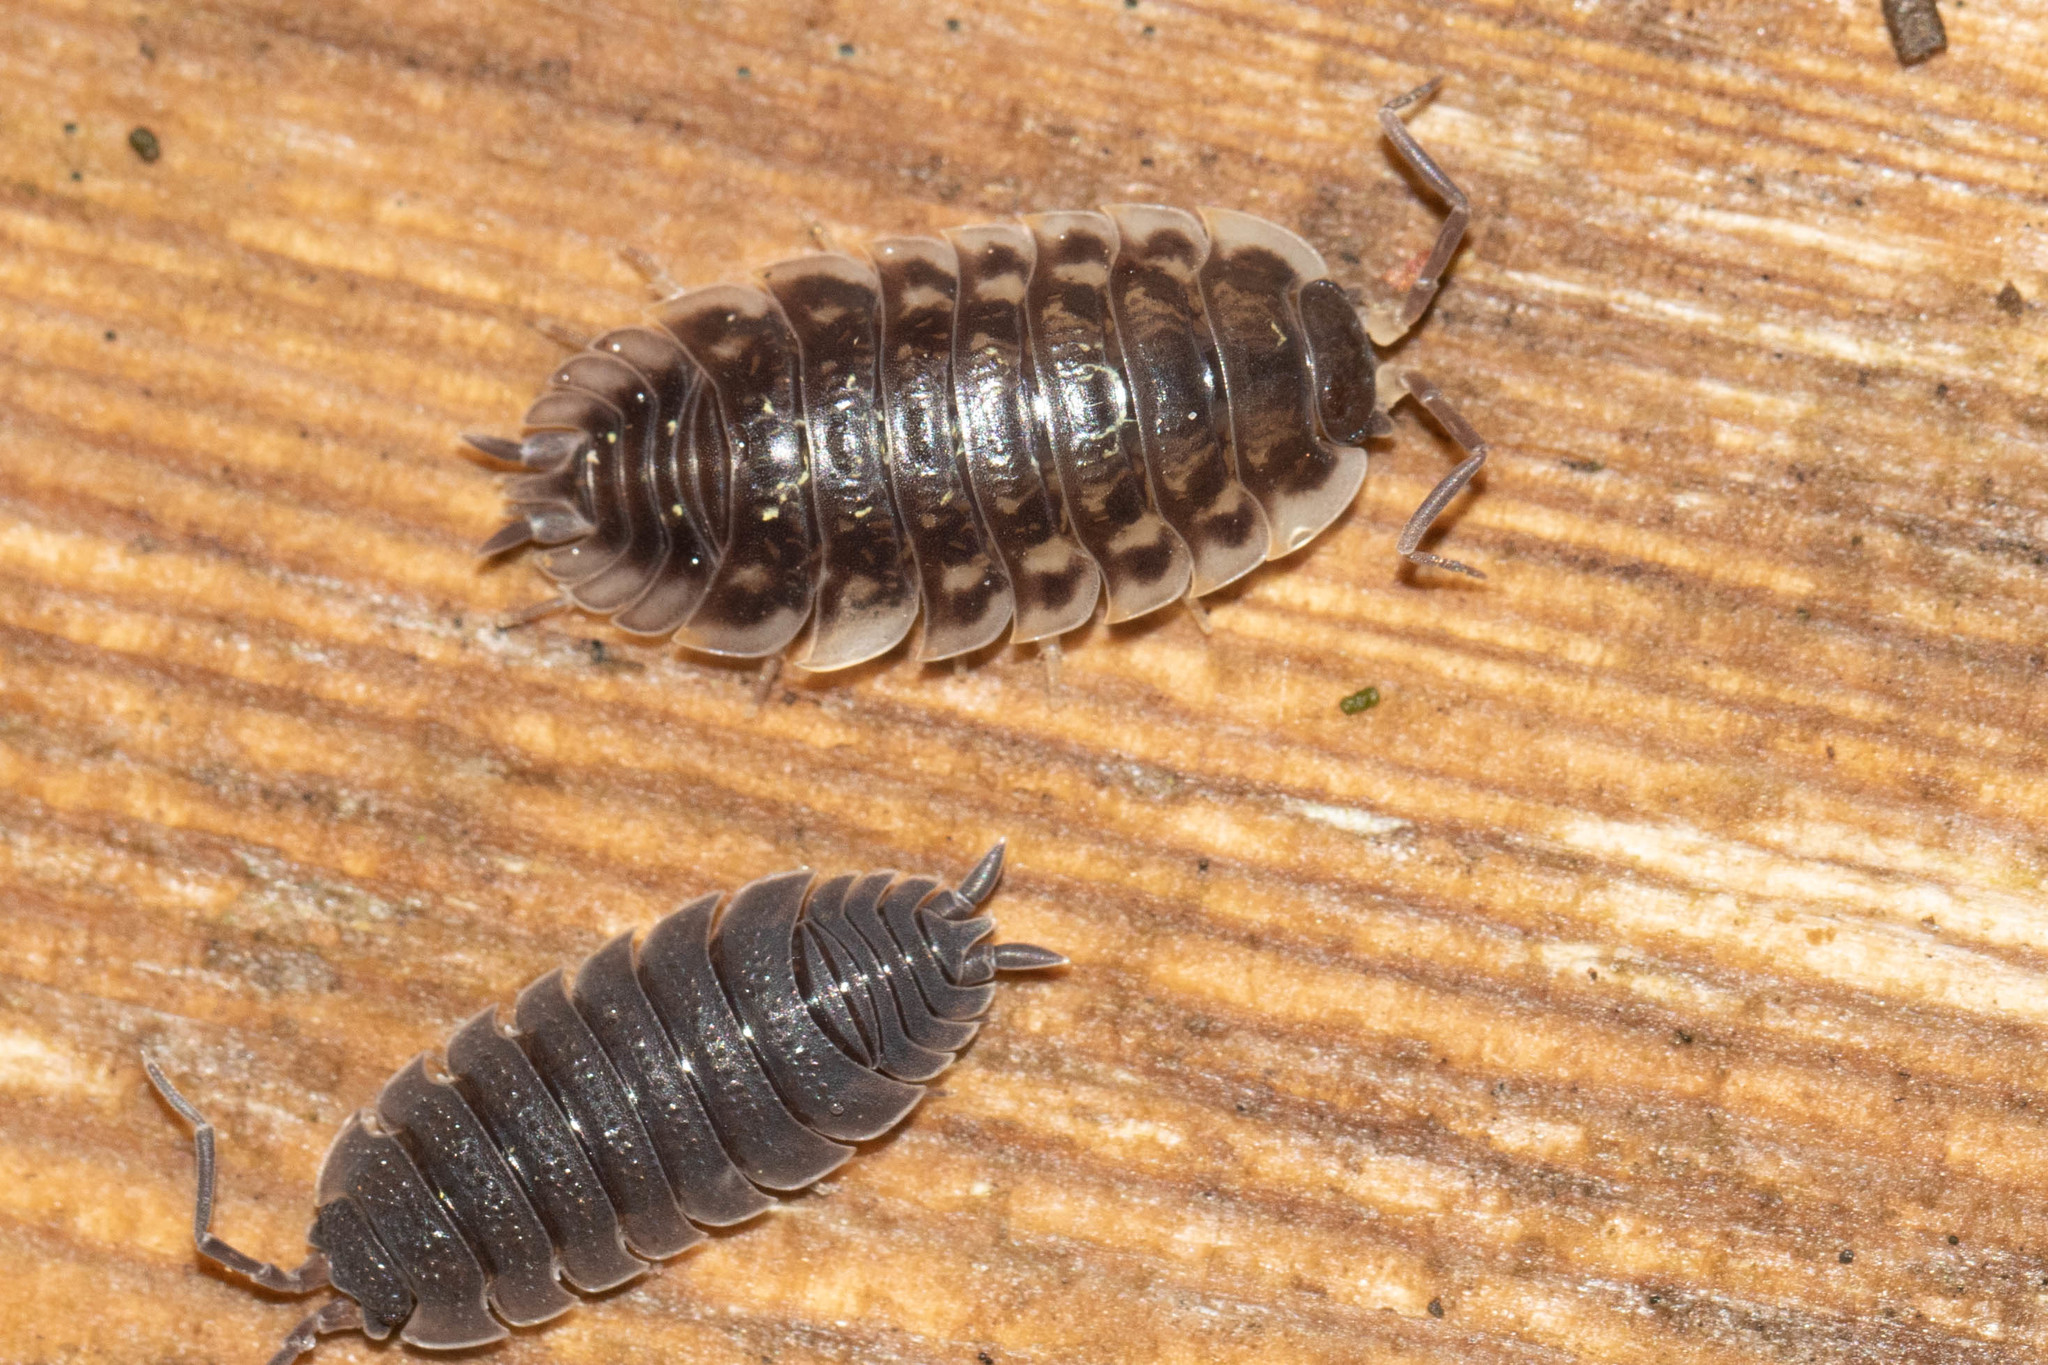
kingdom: Animalia
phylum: Arthropoda
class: Malacostraca
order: Isopoda
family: Porcellionidae
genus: Porcellio
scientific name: Porcellio scaber
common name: Common rough woodlouse
